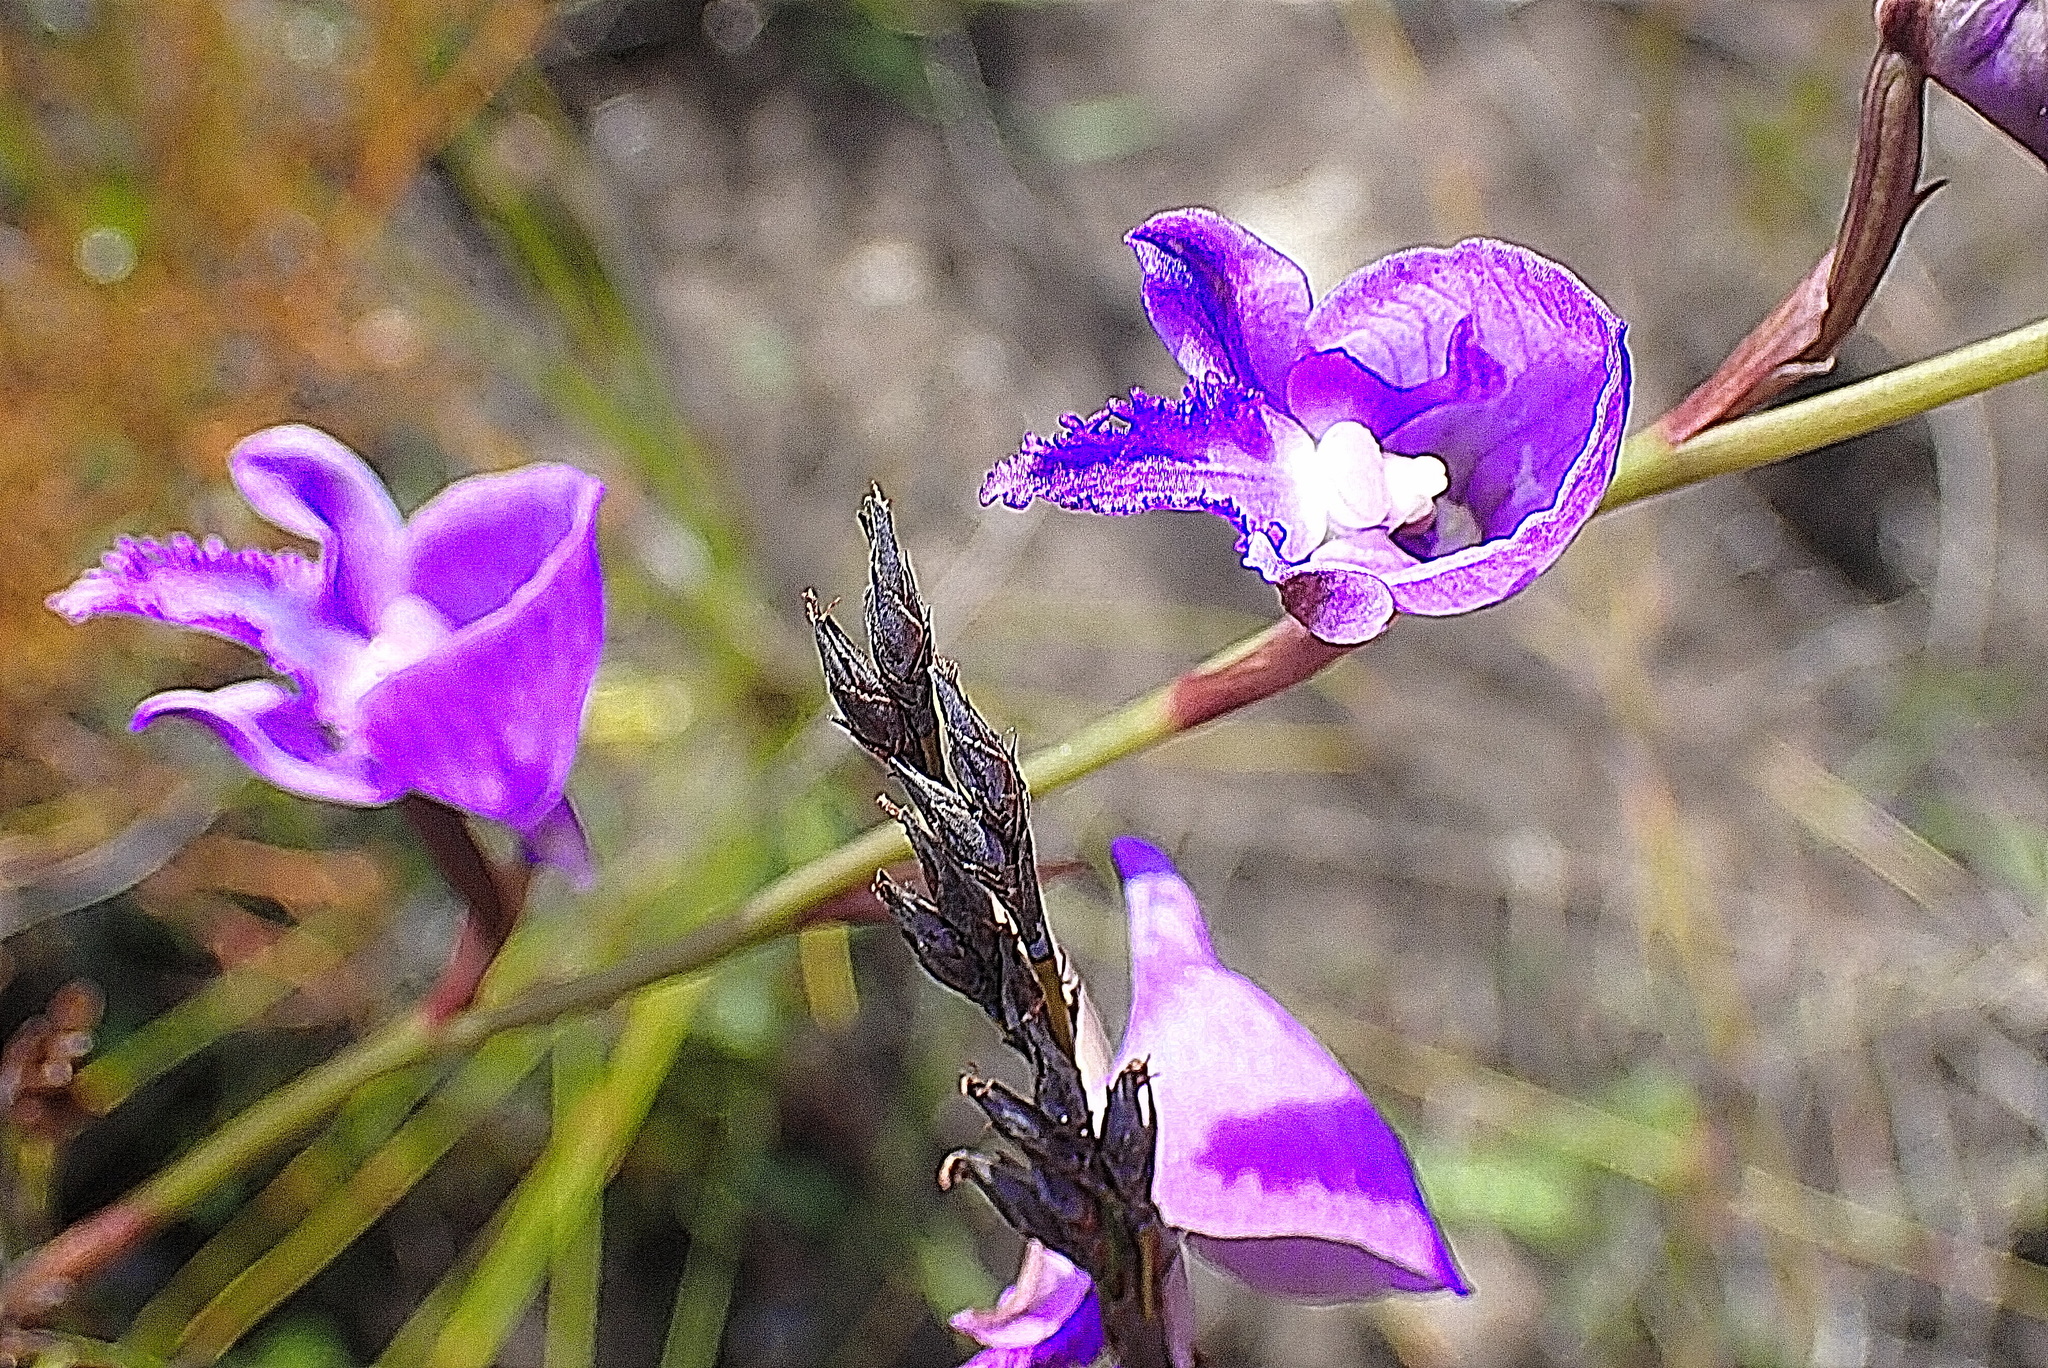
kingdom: Plantae
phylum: Tracheophyta
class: Liliopsida
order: Asparagales
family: Orchidaceae
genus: Disa
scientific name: Disa hians
